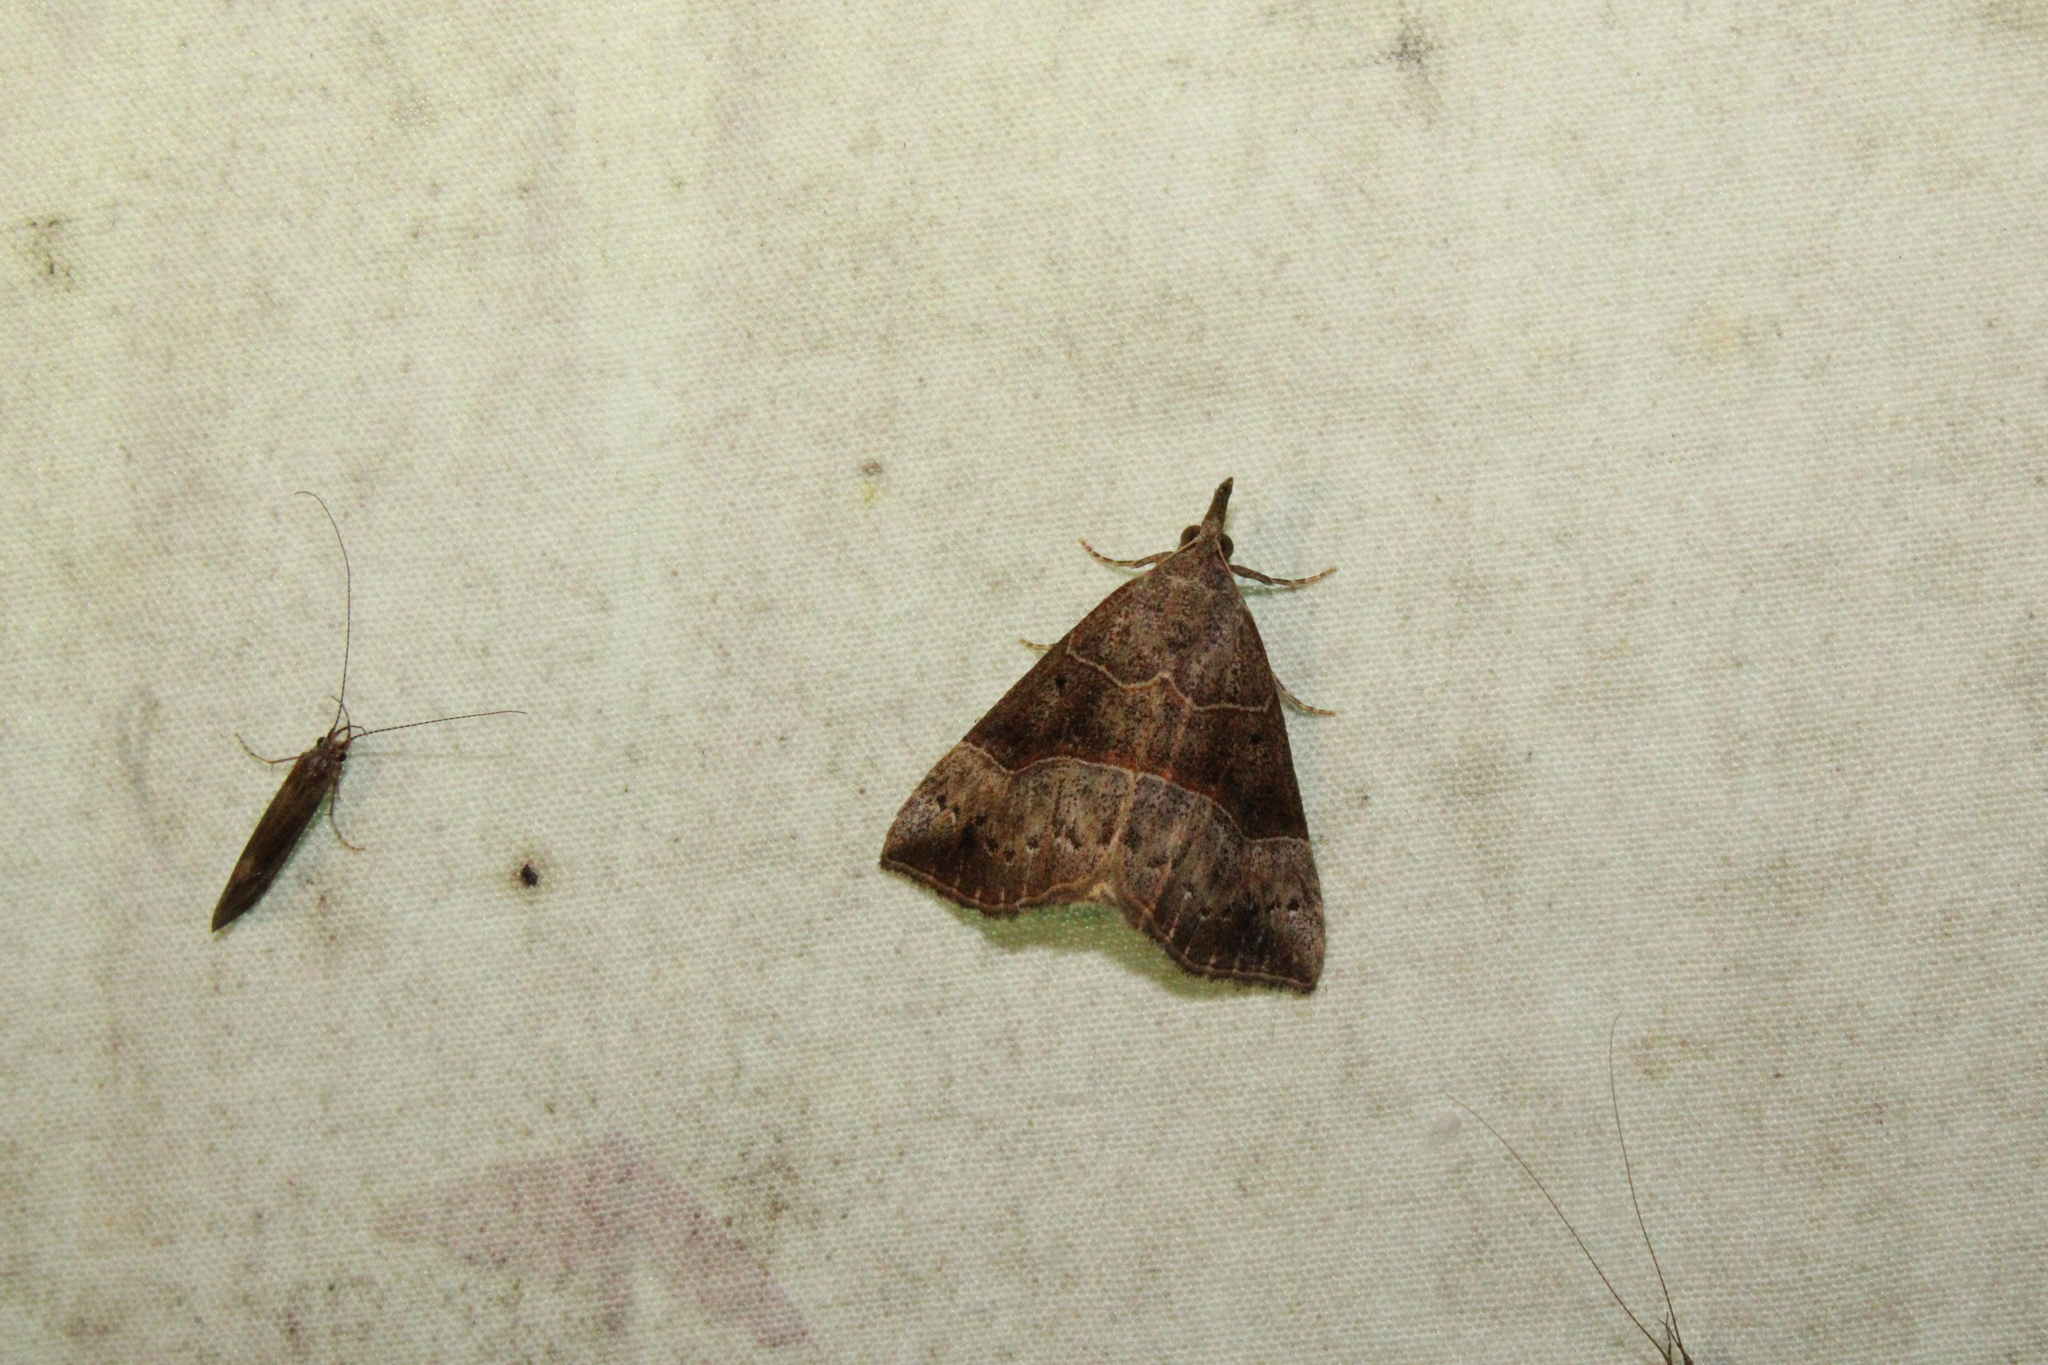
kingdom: Animalia
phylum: Arthropoda
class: Insecta
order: Lepidoptera
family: Erebidae
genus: Hypena
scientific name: Hypena deceptalis
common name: Deceptive snout
